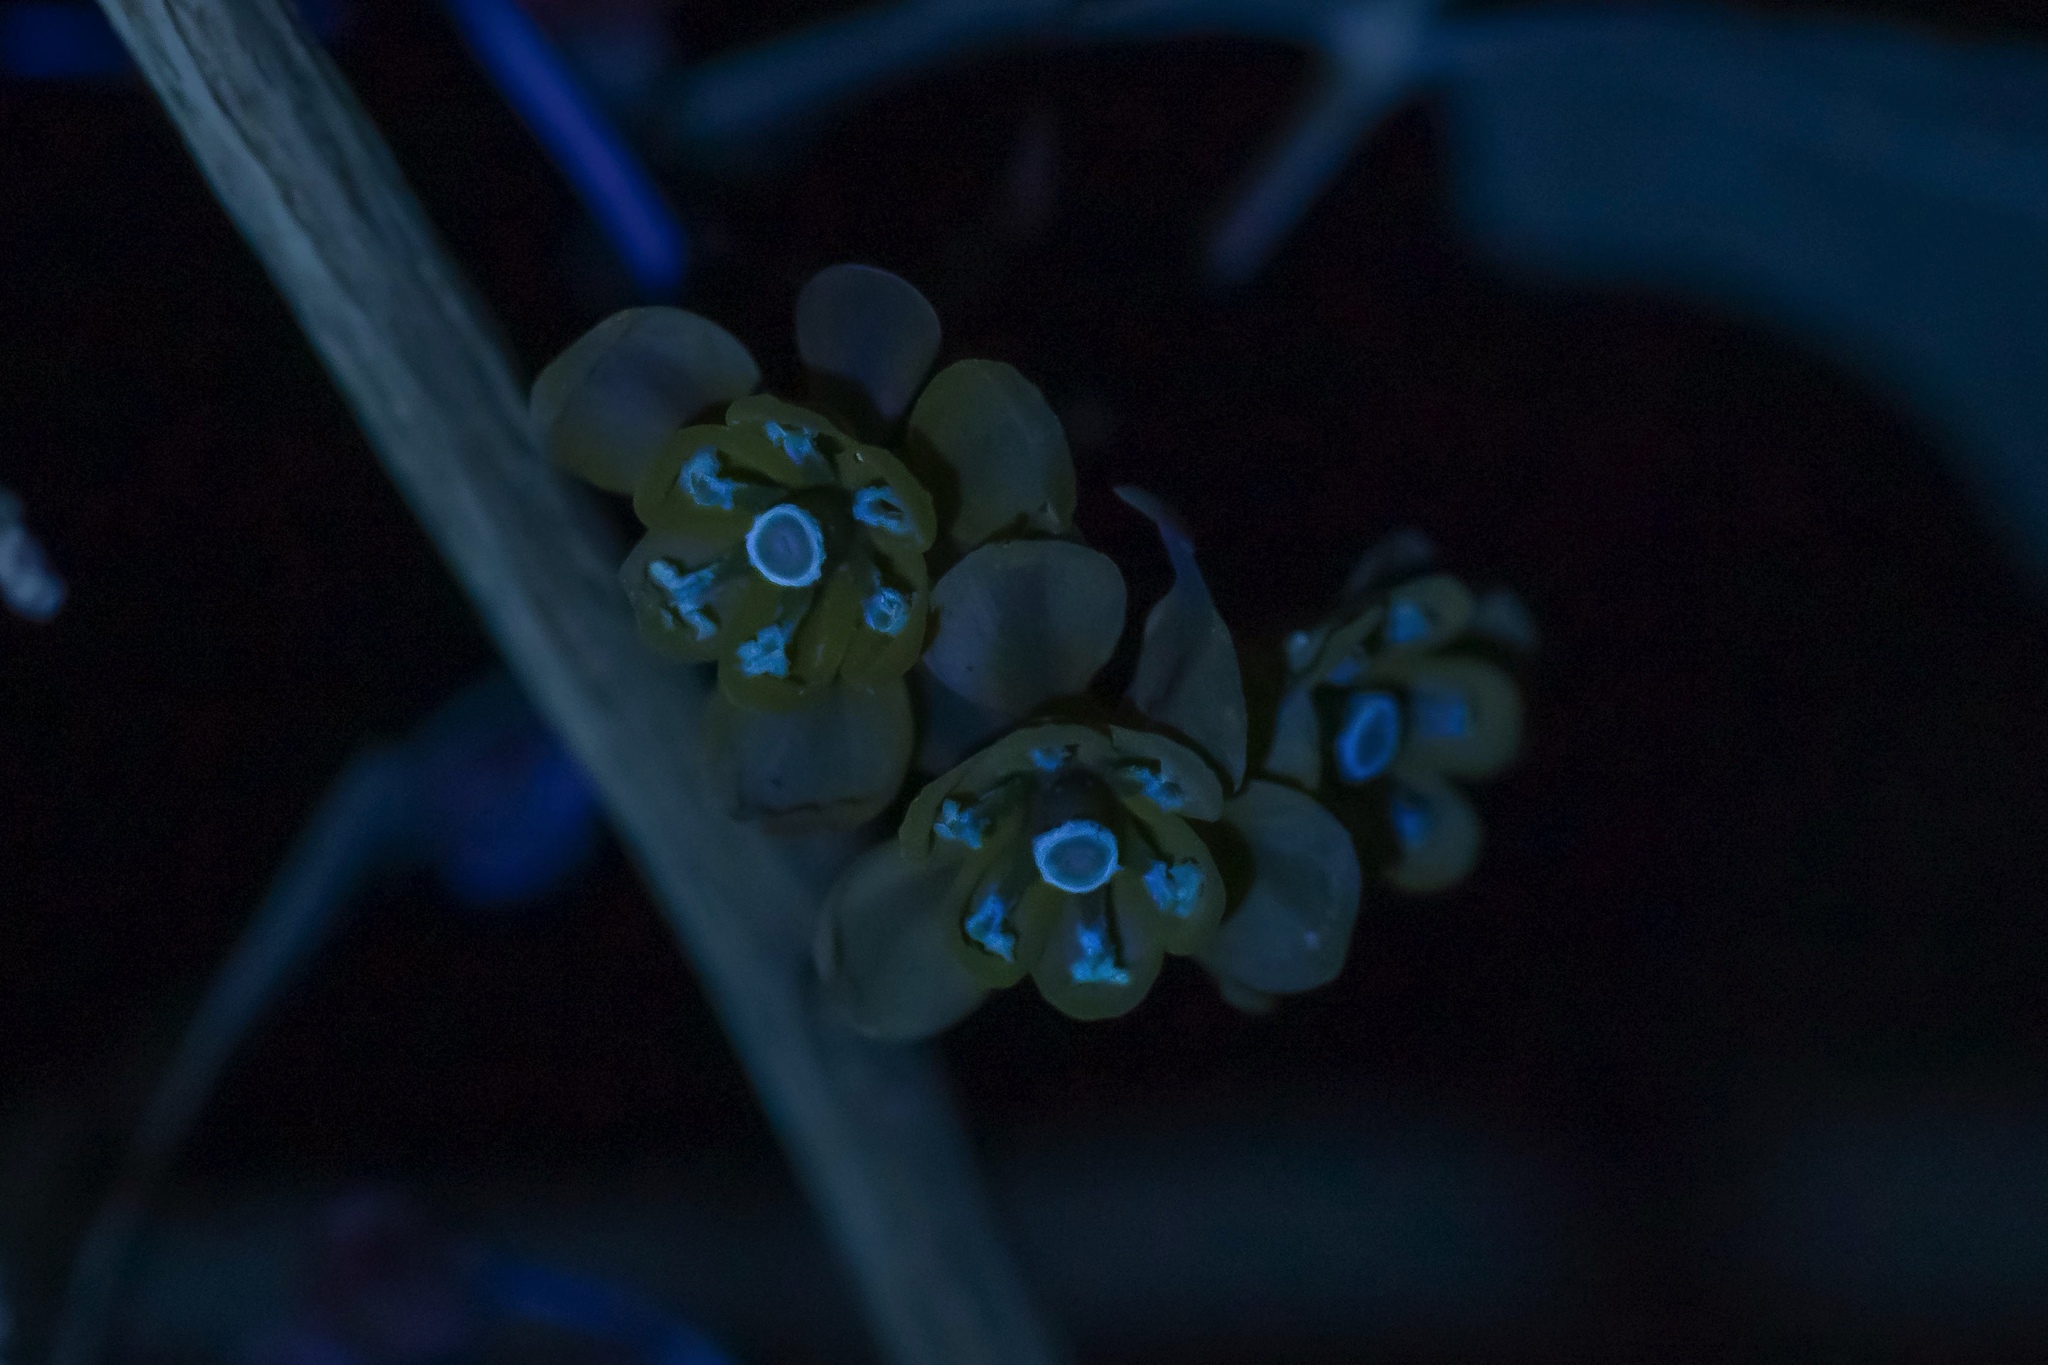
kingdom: Plantae
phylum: Tracheophyta
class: Magnoliopsida
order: Ranunculales
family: Berberidaceae
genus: Alloberberis
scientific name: Alloberberis trifoliolata
